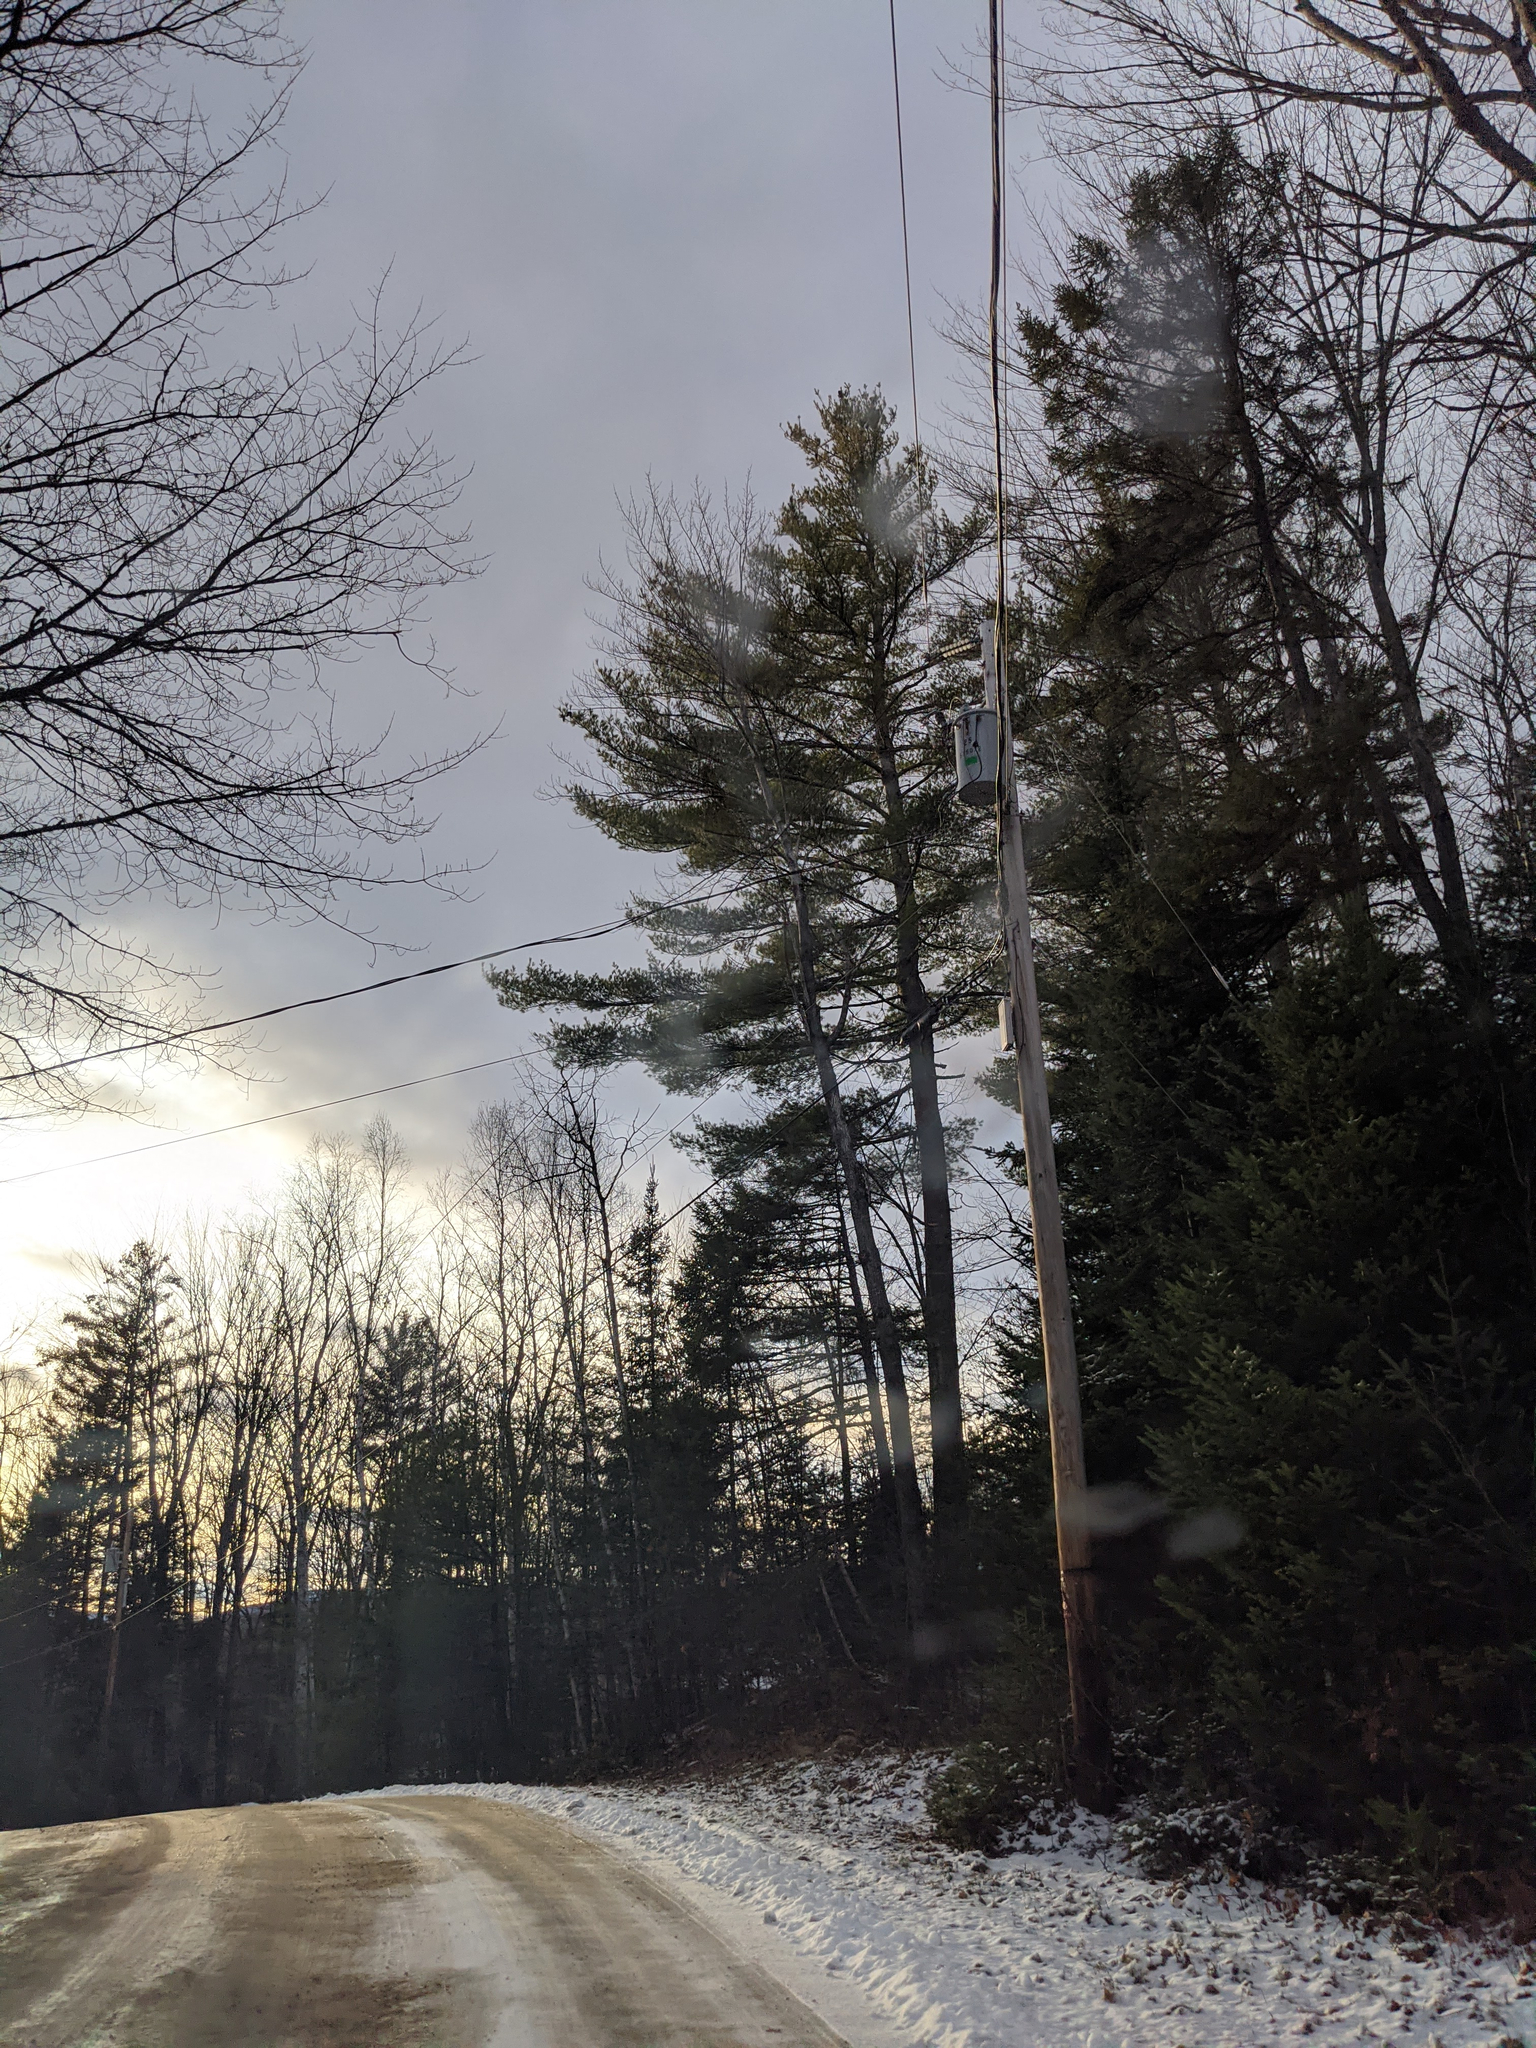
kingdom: Plantae
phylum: Tracheophyta
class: Pinopsida
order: Pinales
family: Pinaceae
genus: Pinus
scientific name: Pinus strobus
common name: Weymouth pine
